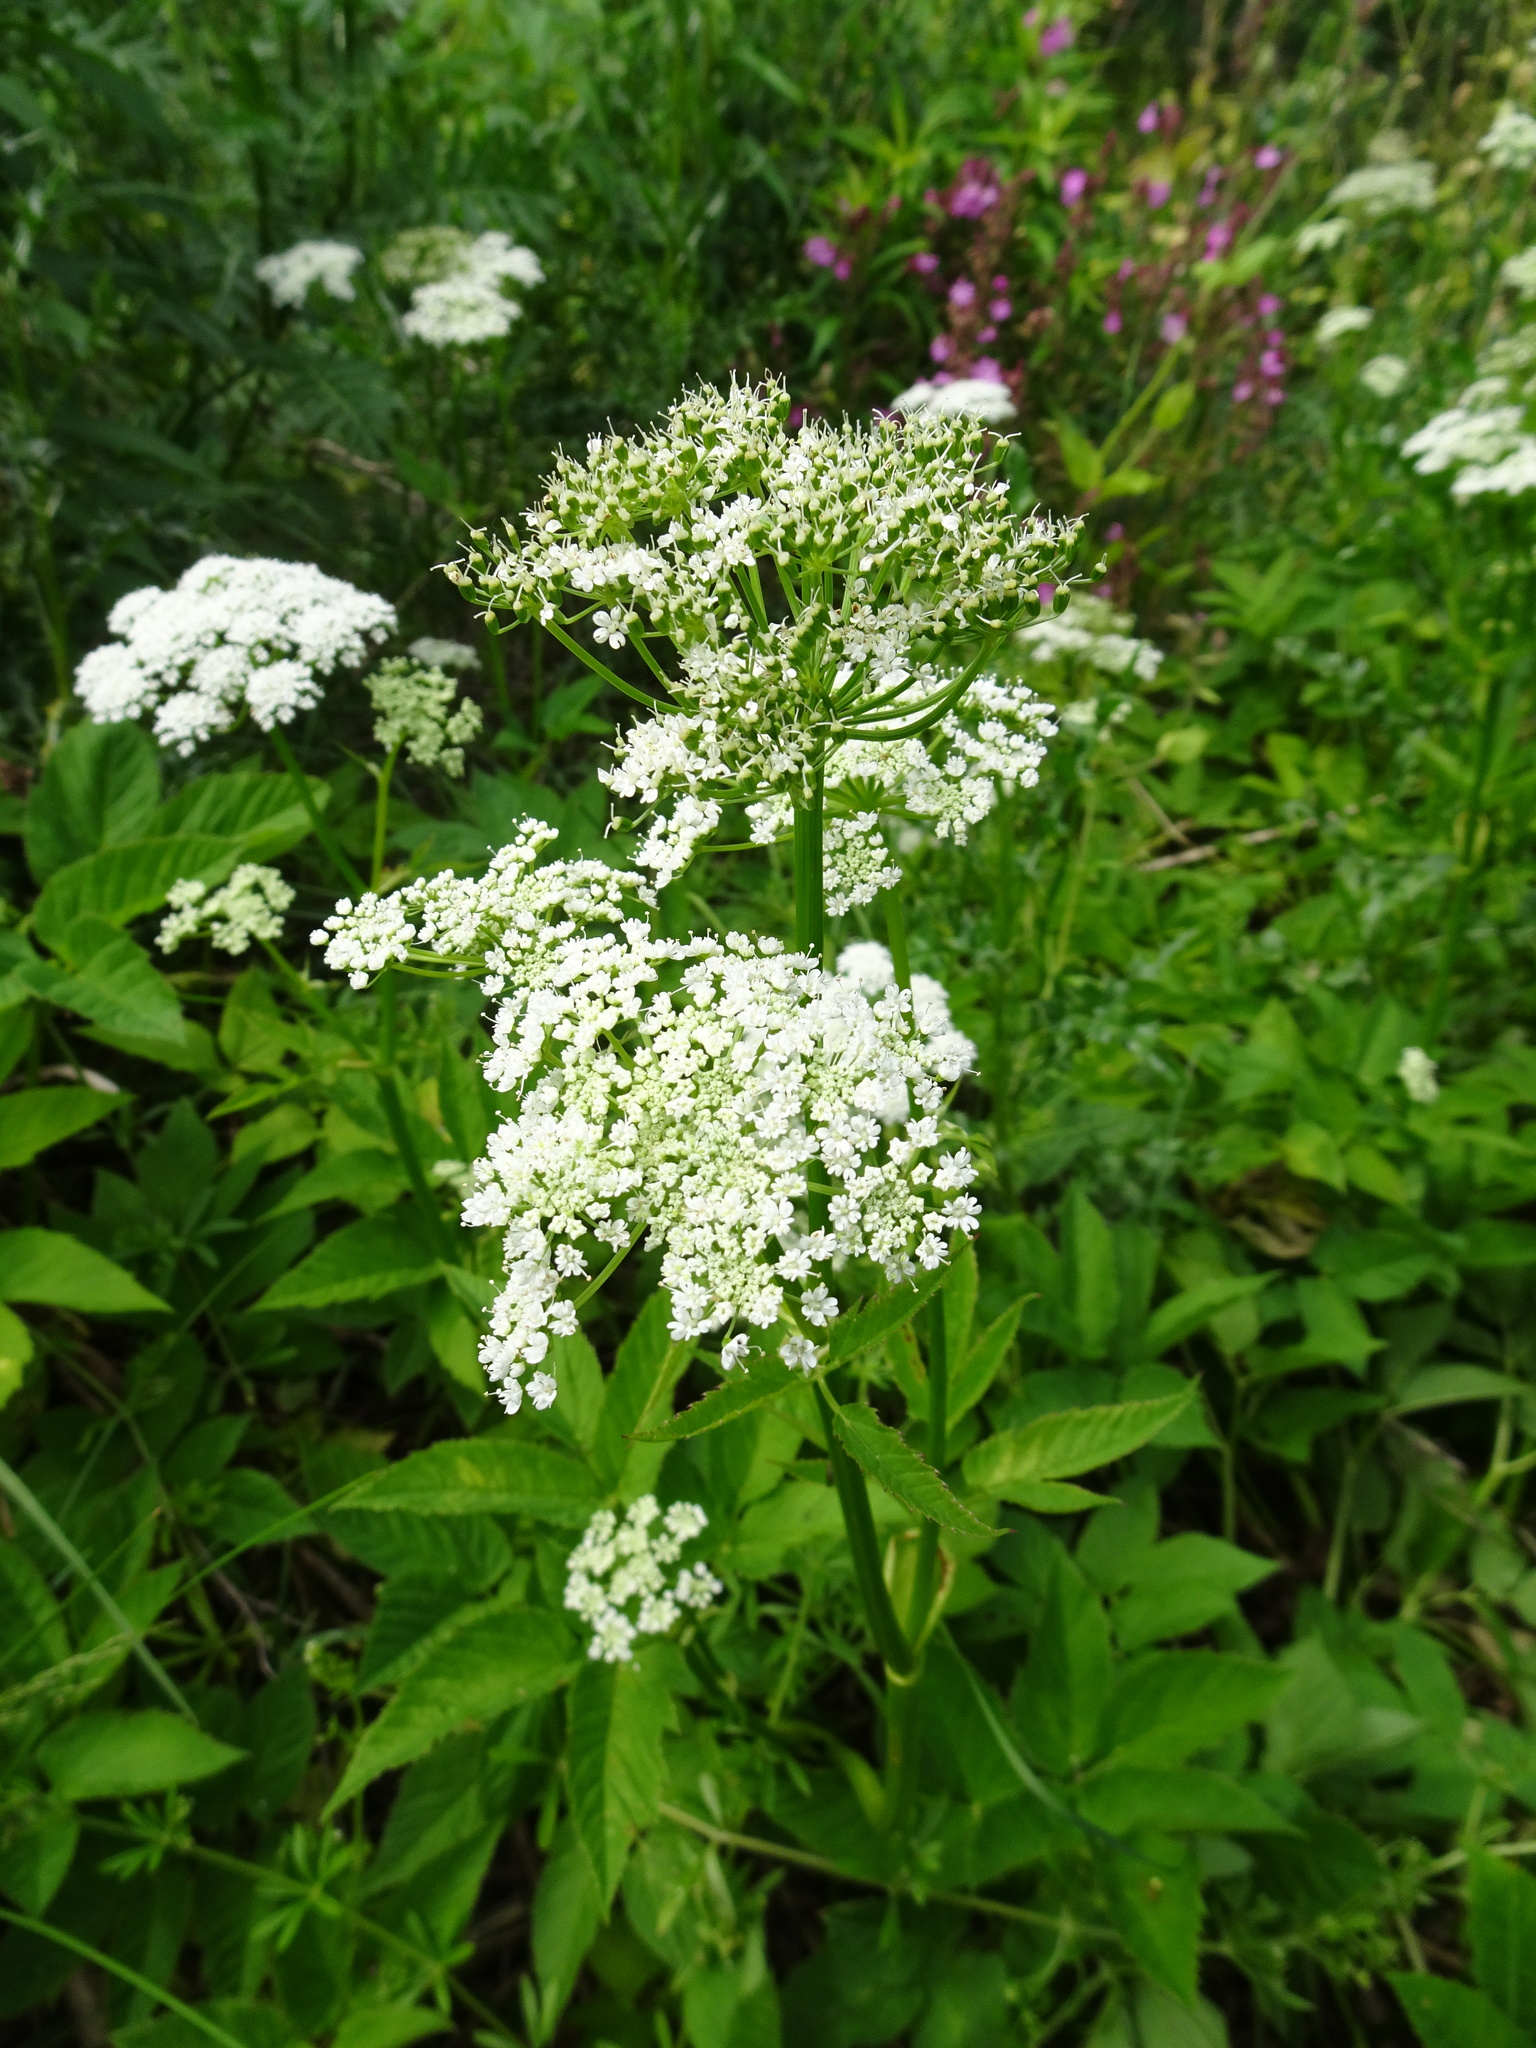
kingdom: Plantae
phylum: Tracheophyta
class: Magnoliopsida
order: Apiales
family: Apiaceae
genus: Aegopodium
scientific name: Aegopodium podagraria
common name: Ground-elder
